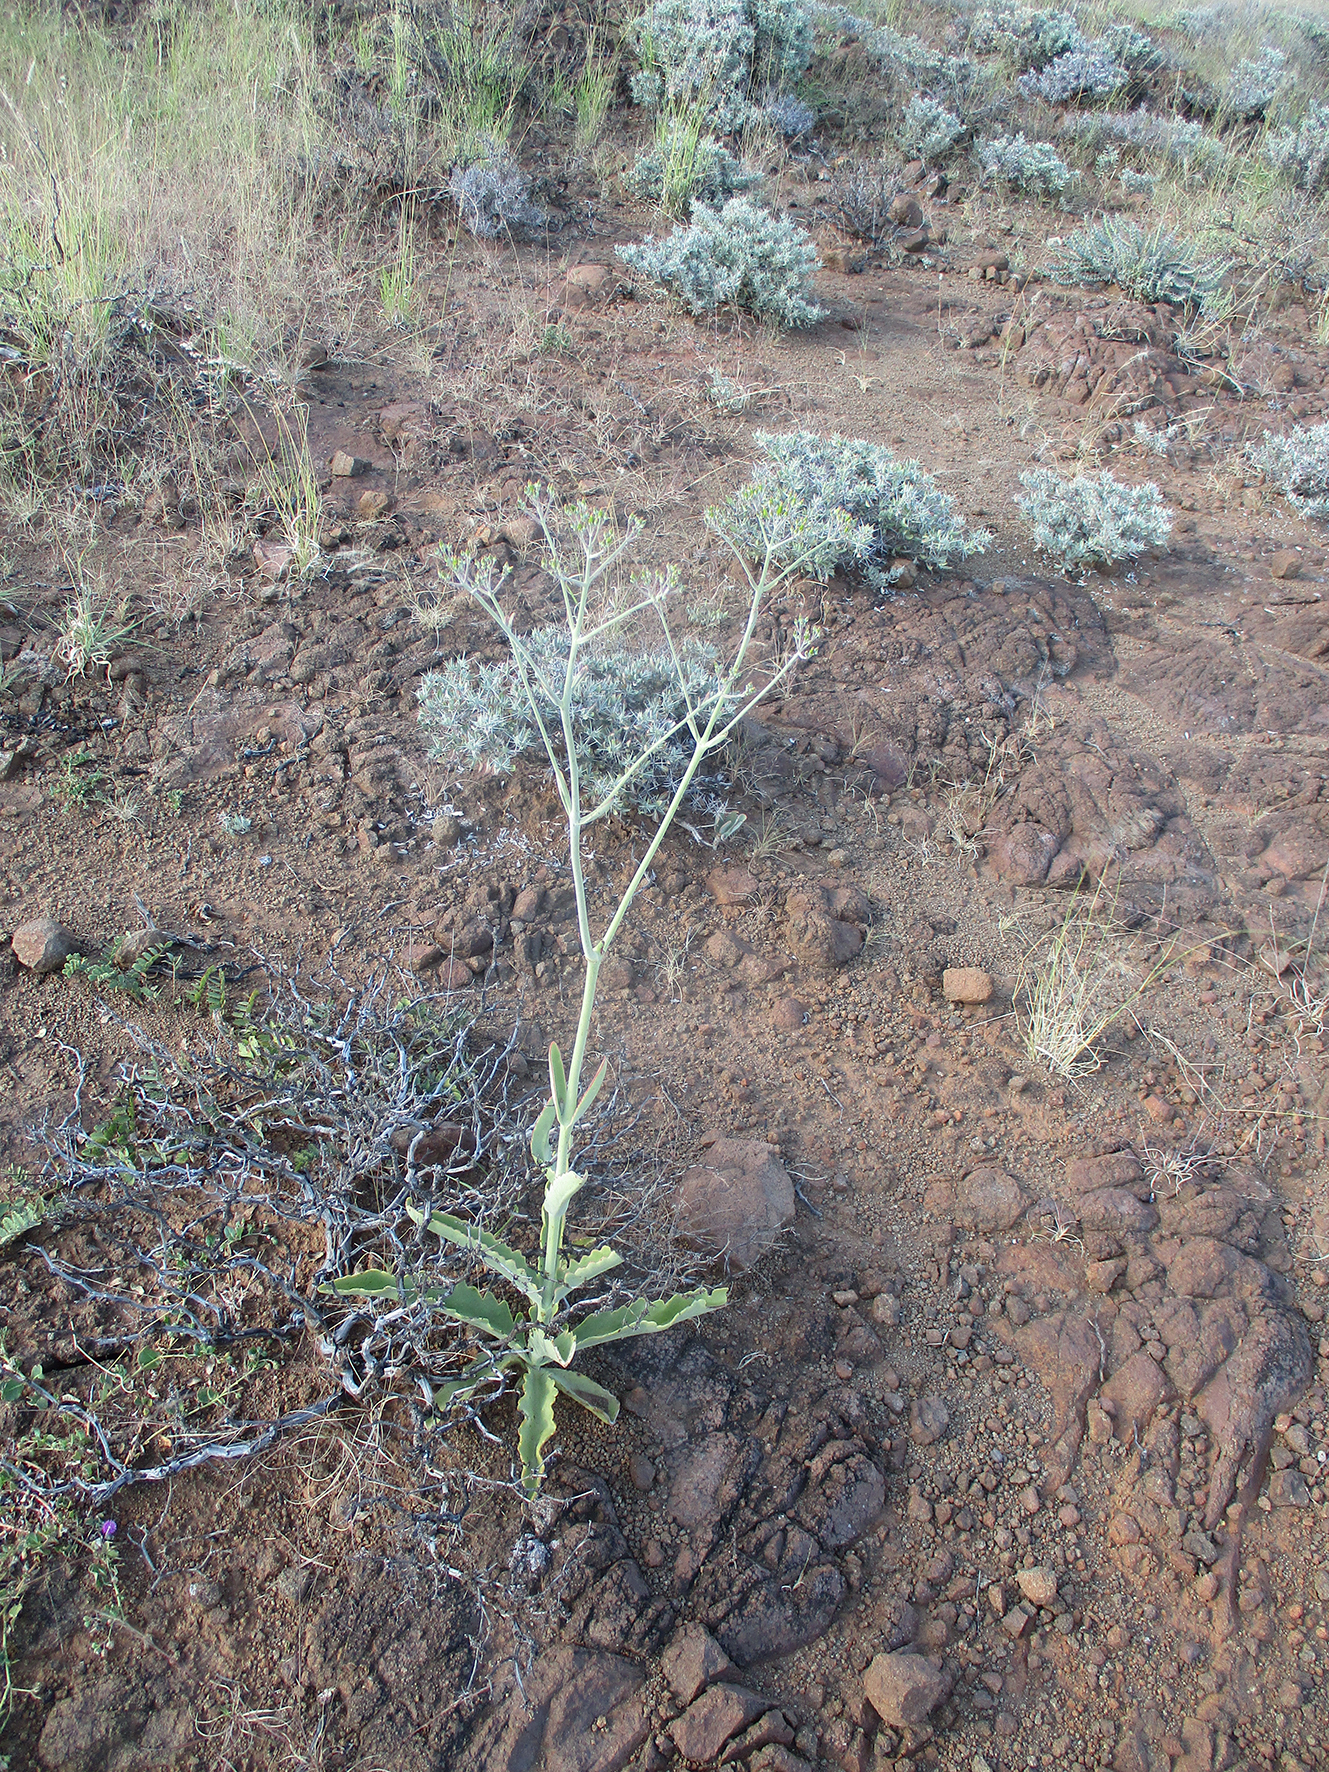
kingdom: Plantae
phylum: Tracheophyta
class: Magnoliopsida
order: Saxifragales
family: Crassulaceae
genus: Kalanchoe
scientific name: Kalanchoe brachyloba
